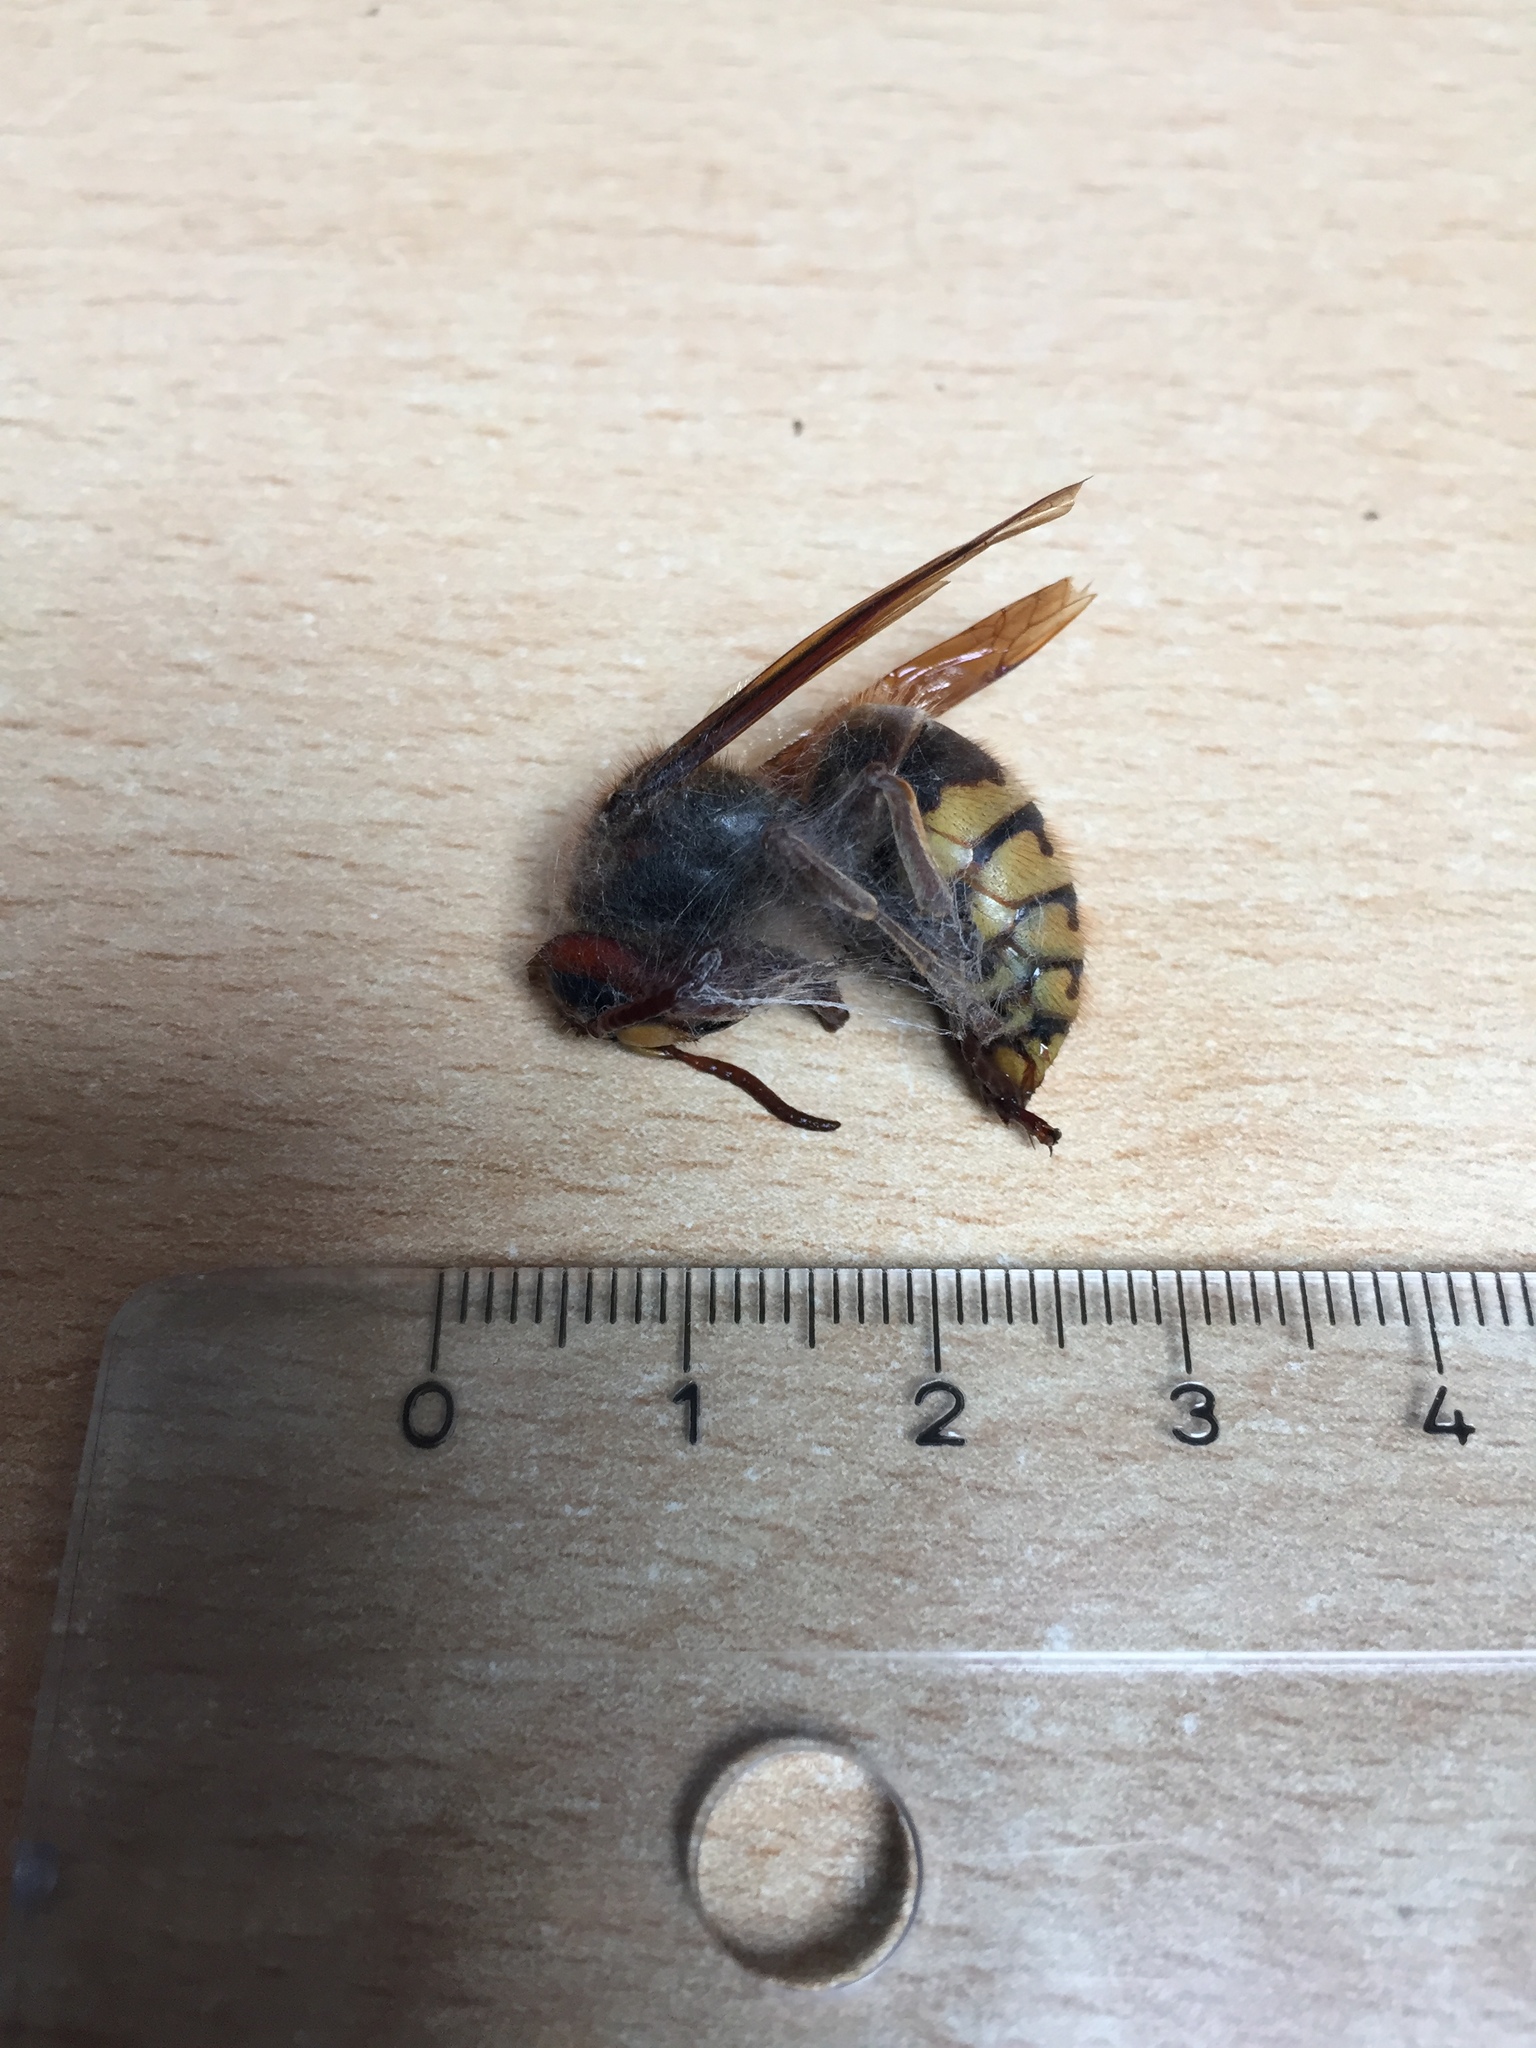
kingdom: Animalia
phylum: Arthropoda
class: Insecta
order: Hymenoptera
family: Vespidae
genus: Vespa
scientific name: Vespa crabro
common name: Hornet
